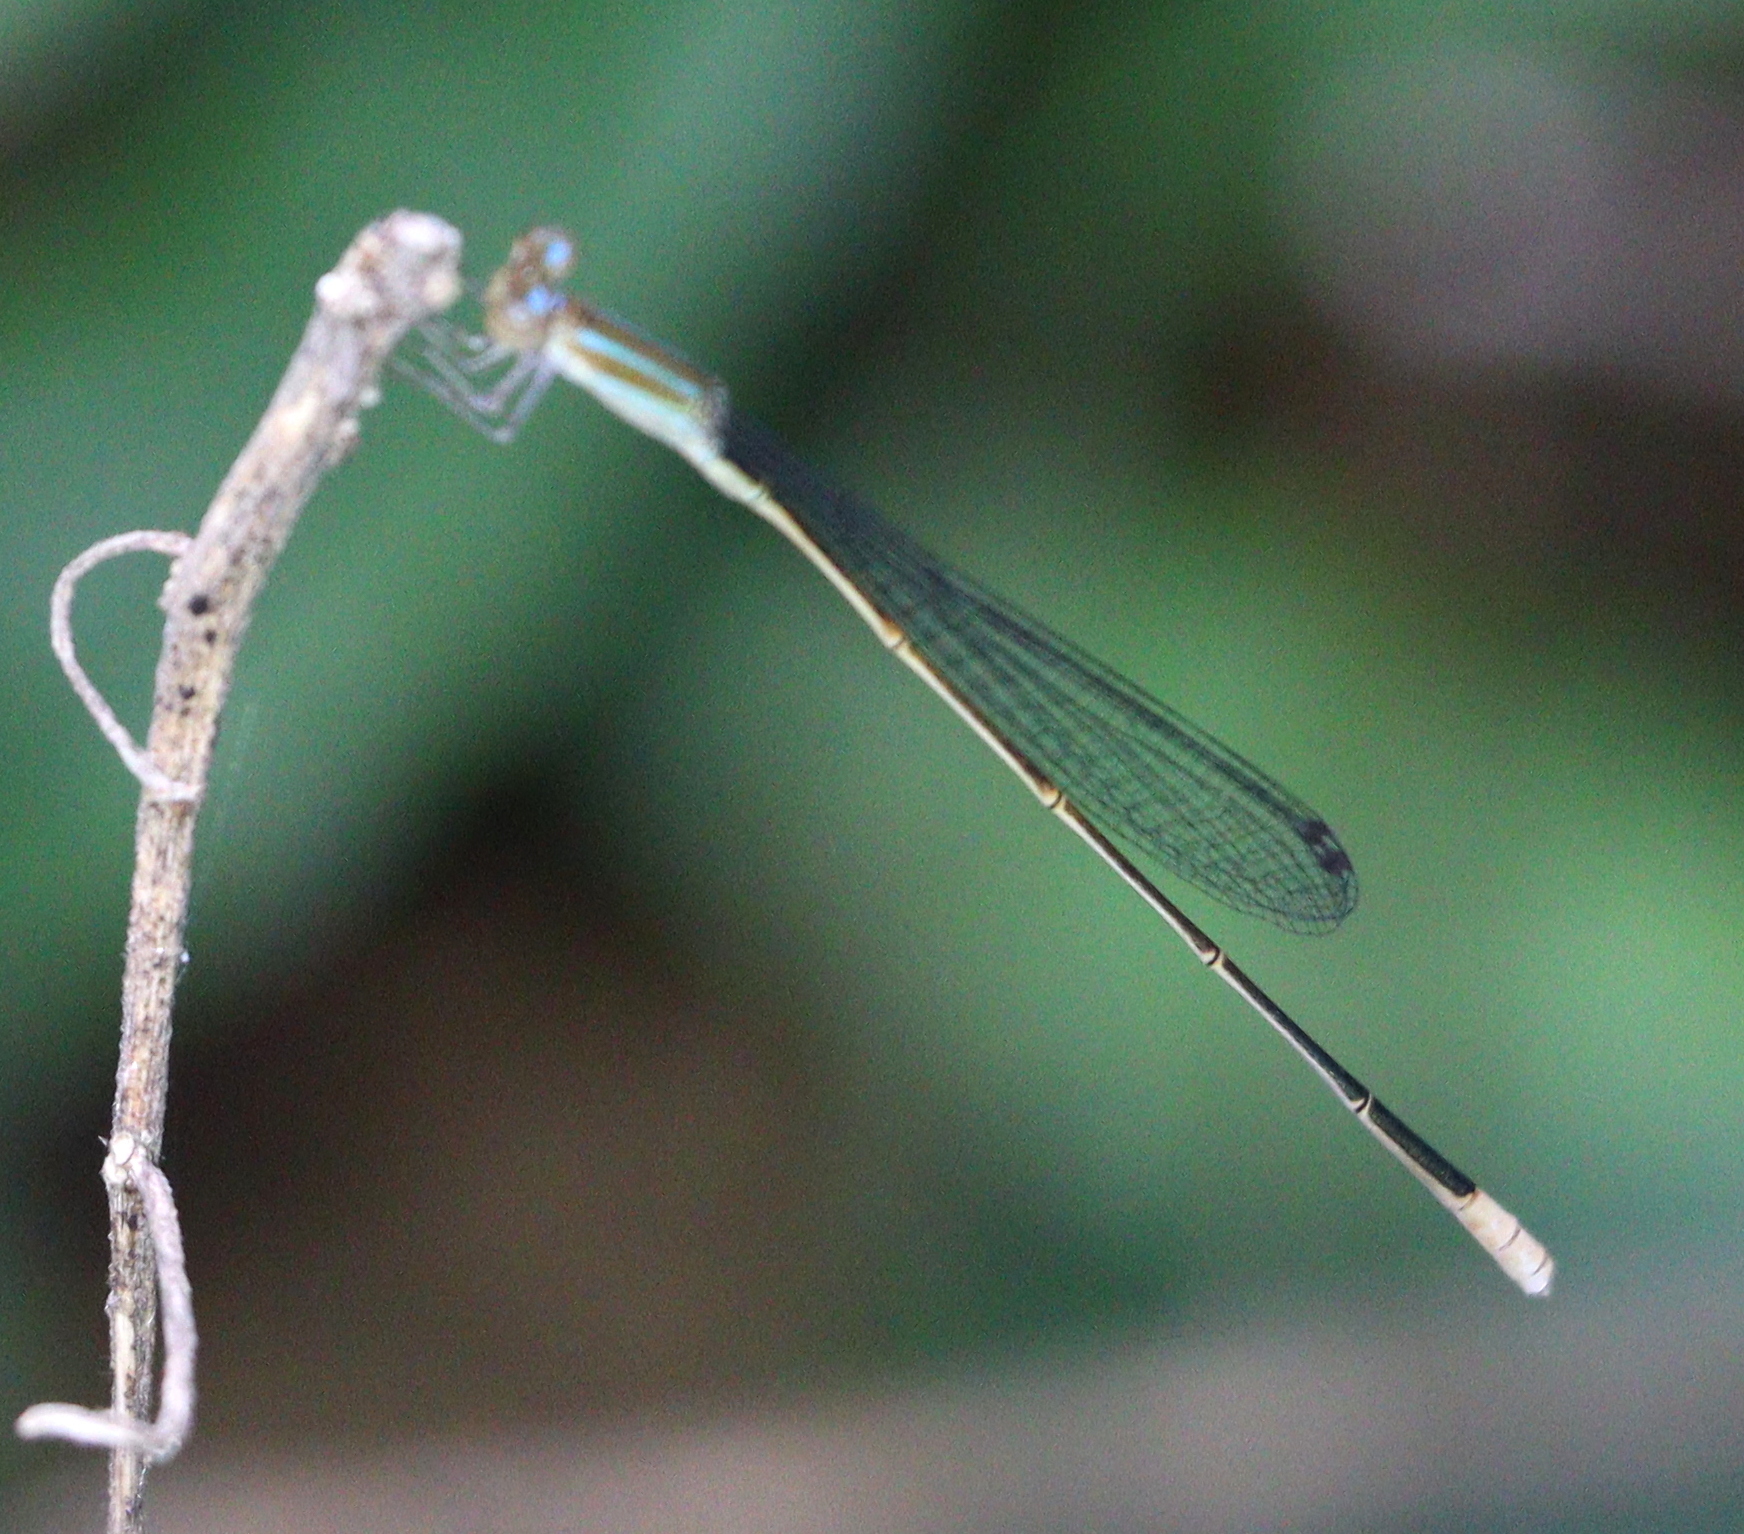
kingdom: Animalia
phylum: Arthropoda
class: Insecta
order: Odonata
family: Coenagrionidae
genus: Aciagrion
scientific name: Aciagrion pallidum
